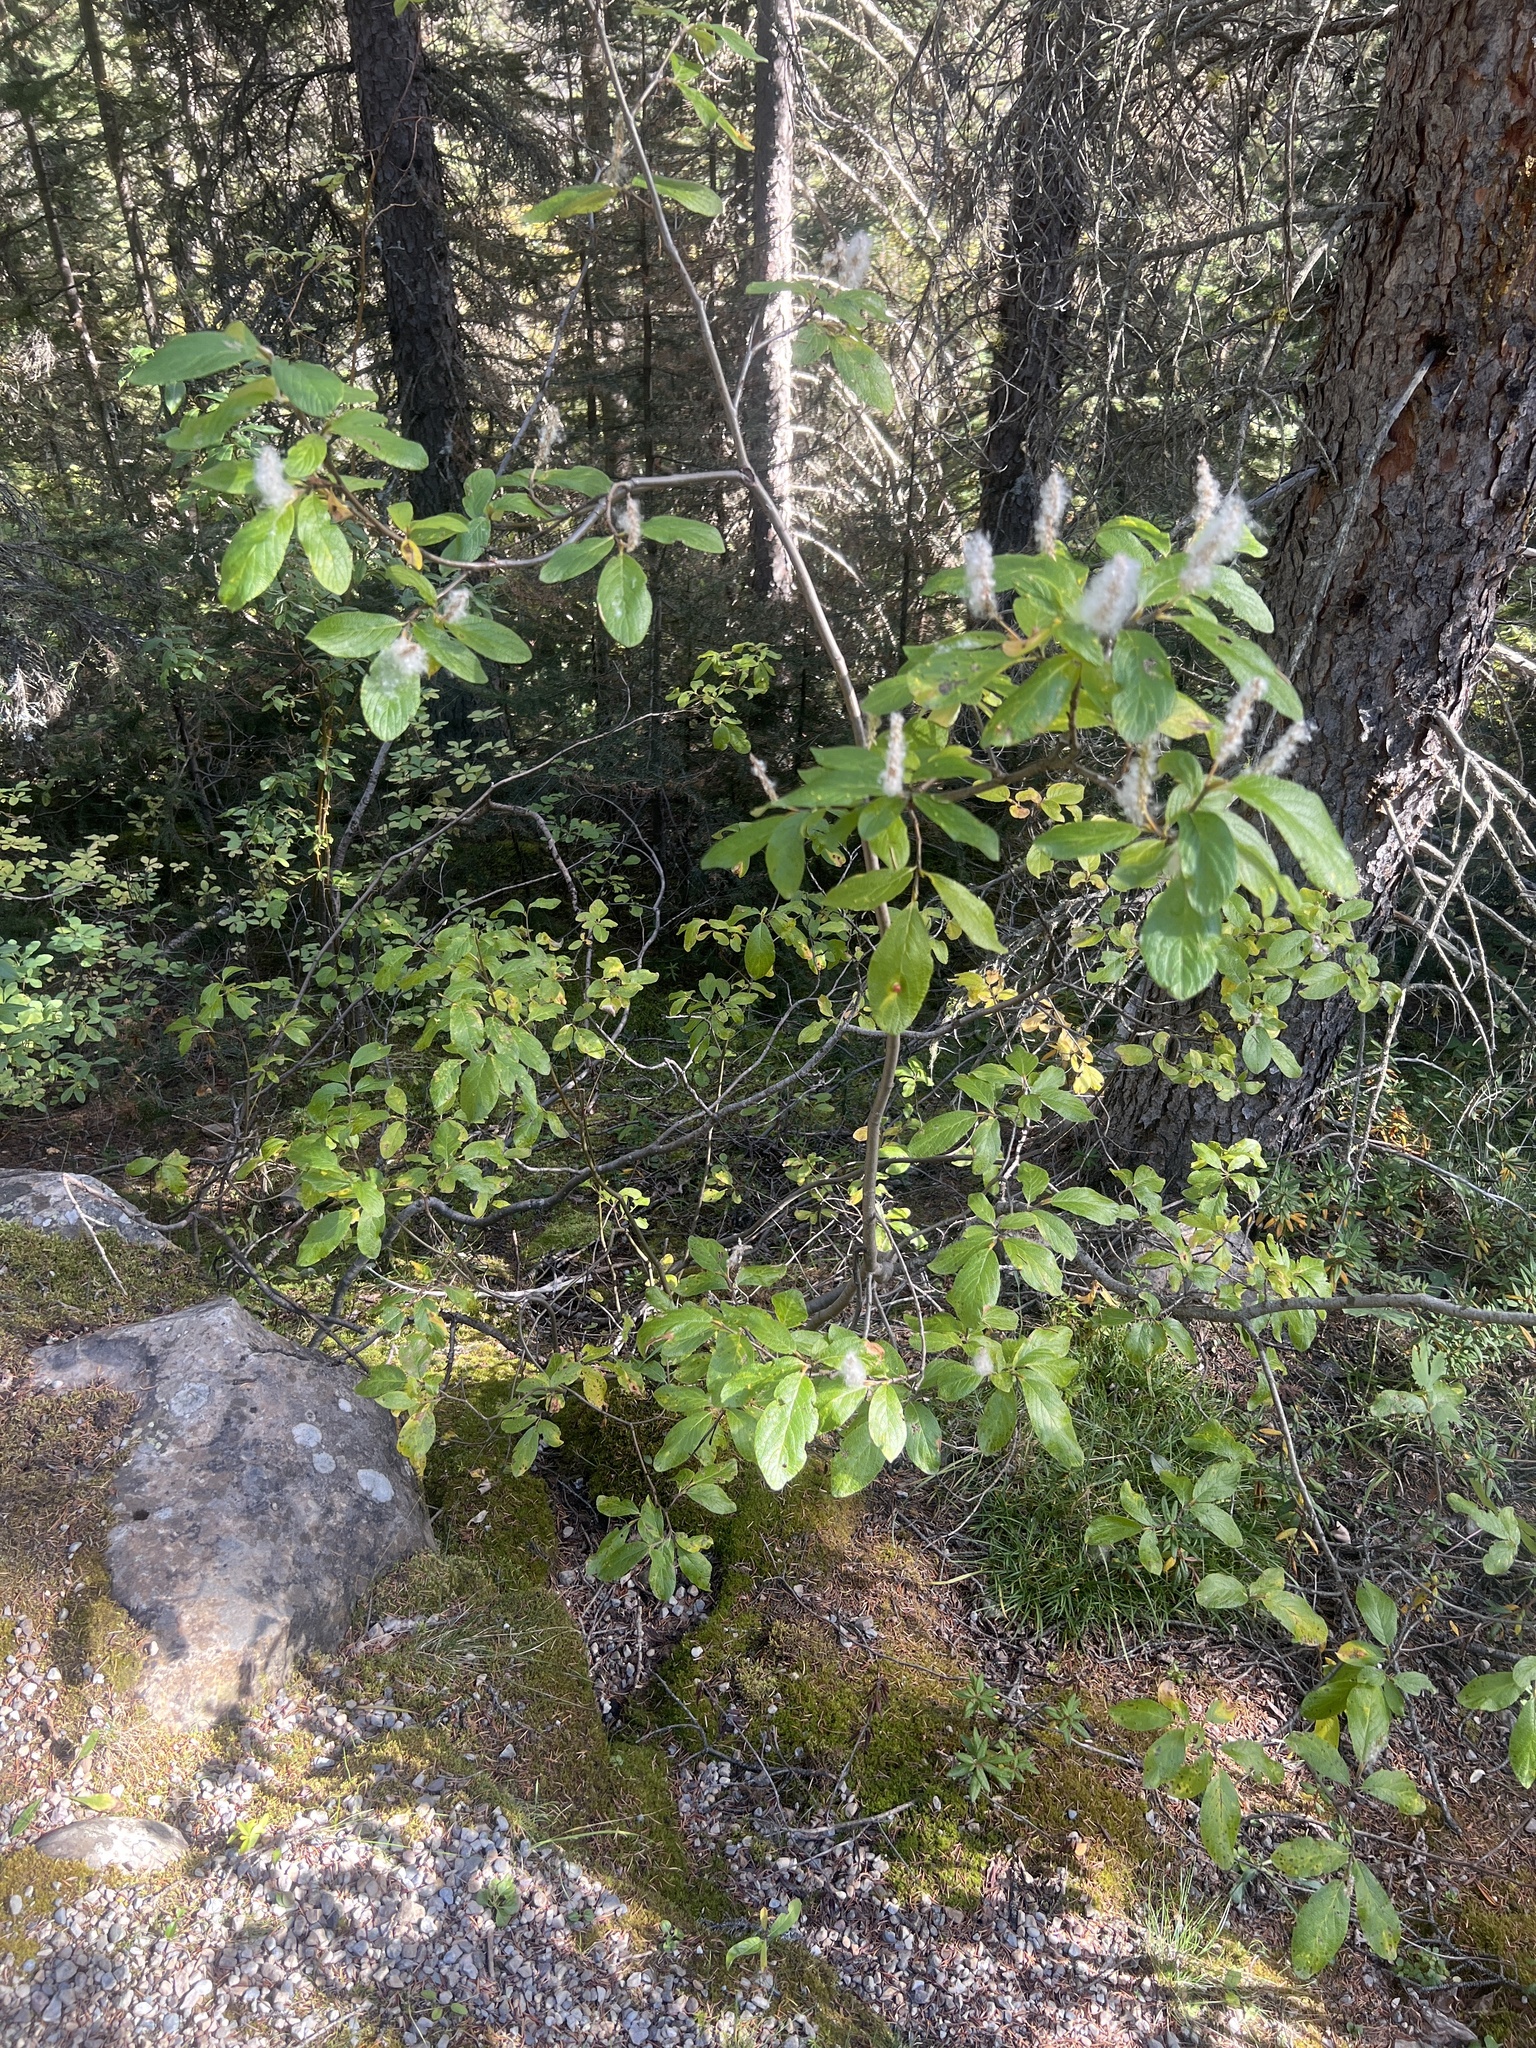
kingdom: Plantae
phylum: Tracheophyta
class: Magnoliopsida
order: Malpighiales
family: Salicaceae
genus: Salix
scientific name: Salix vestita
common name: Hairy willow
